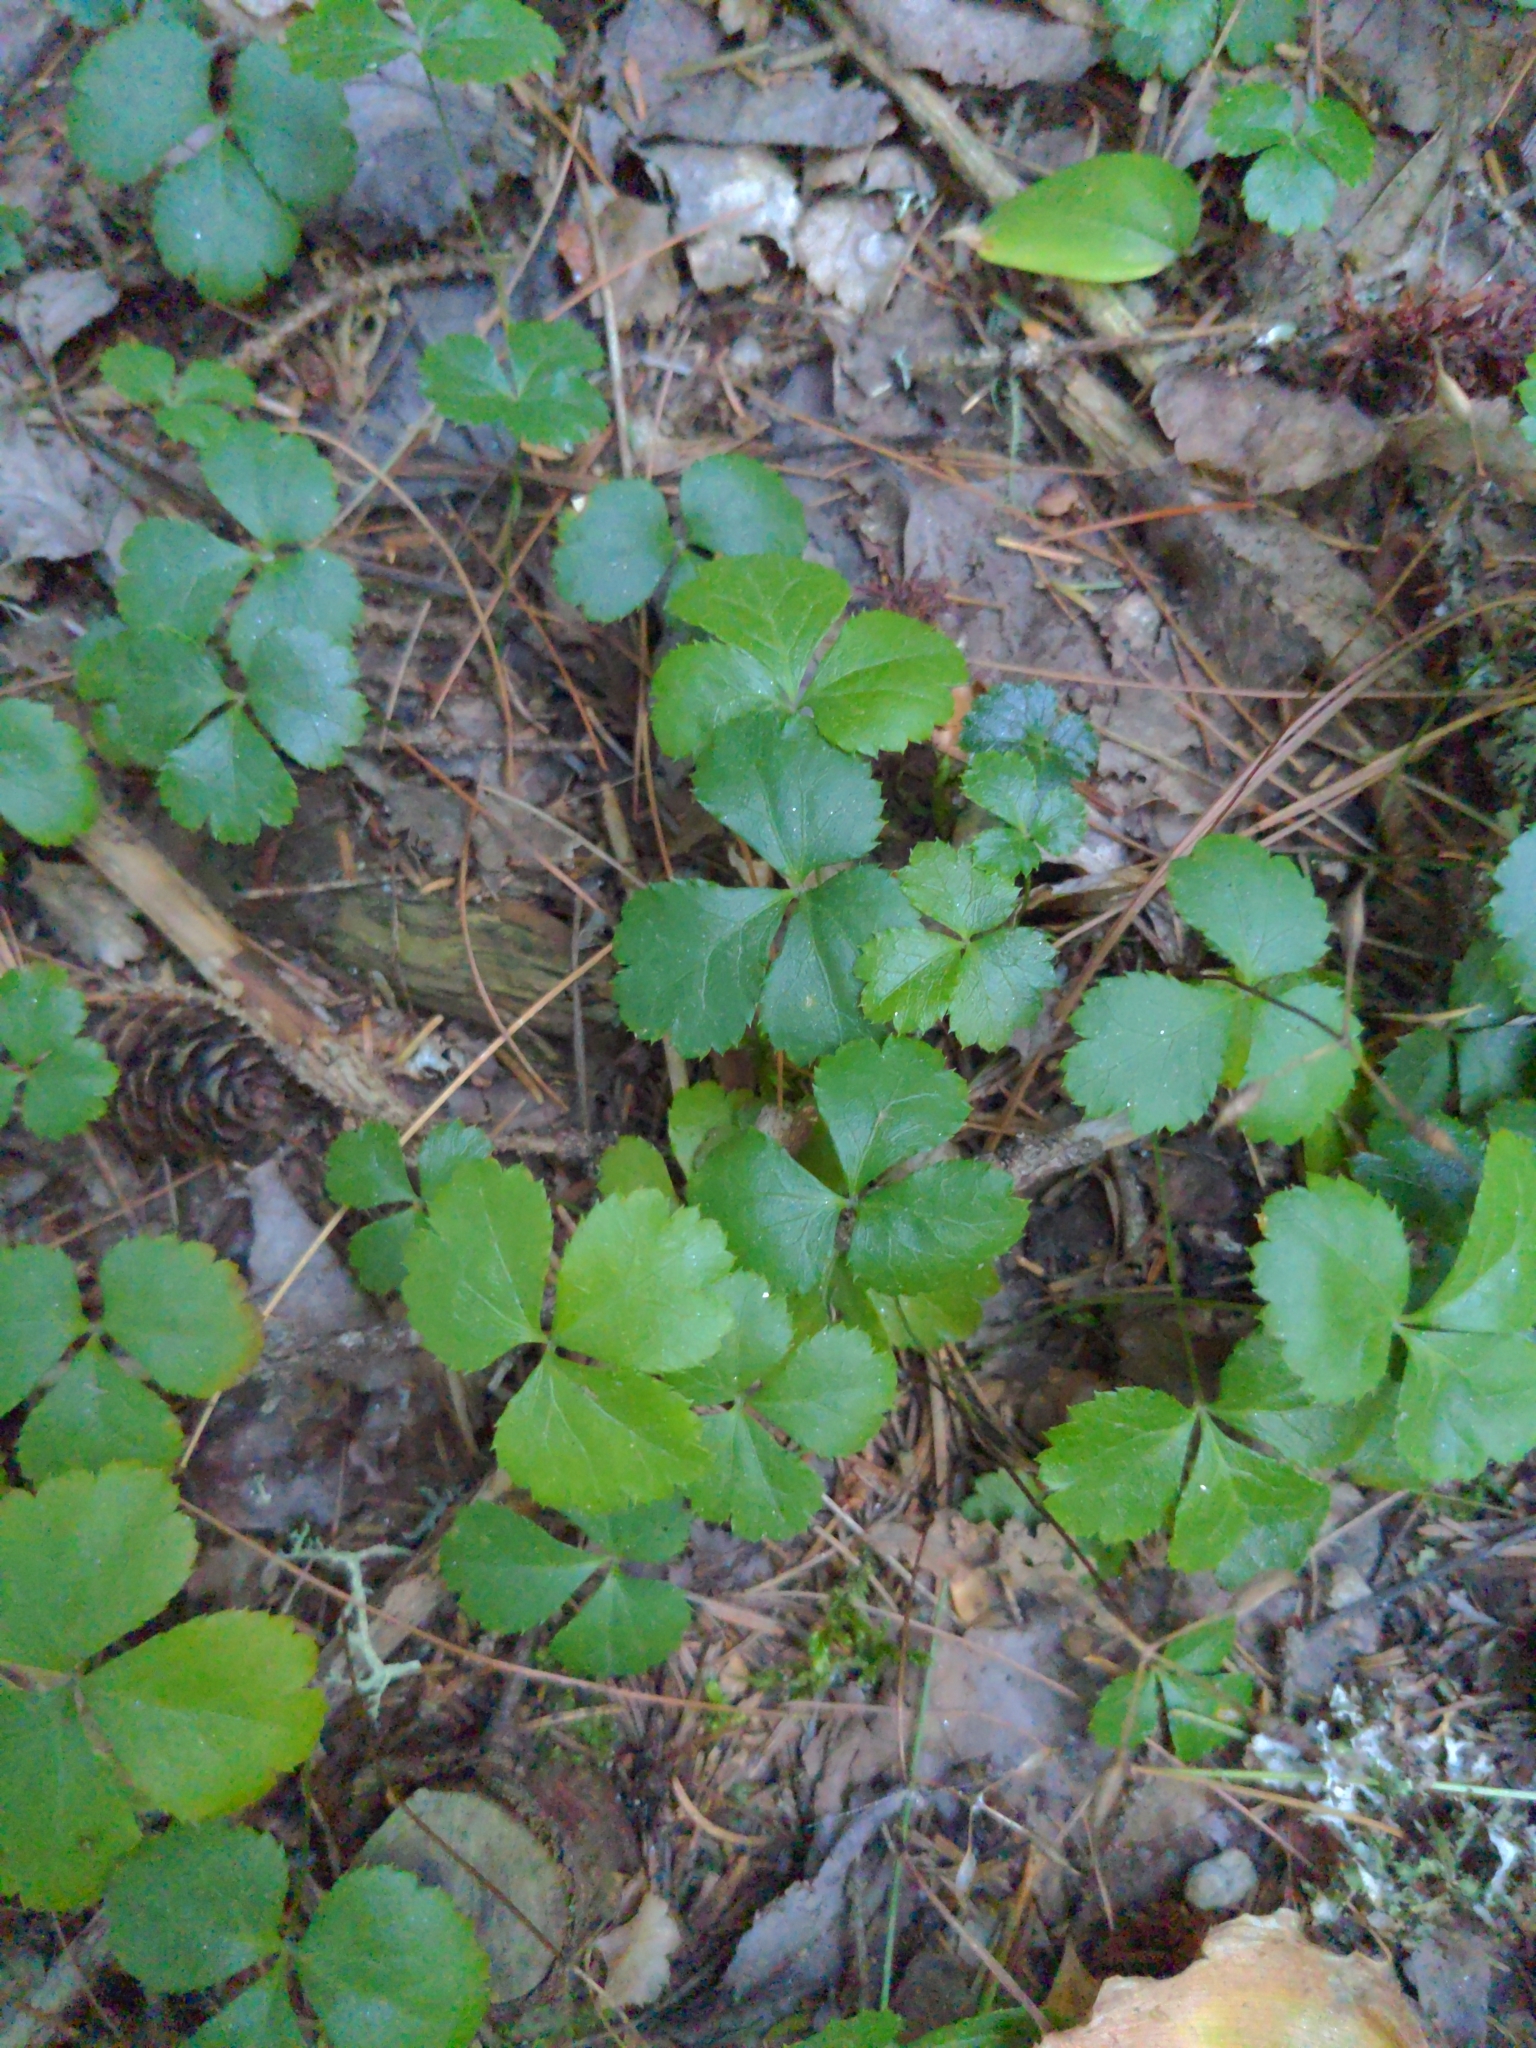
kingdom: Plantae
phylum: Tracheophyta
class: Magnoliopsida
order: Ranunculales
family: Ranunculaceae
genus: Coptis
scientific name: Coptis trifolia
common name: Canker-root
